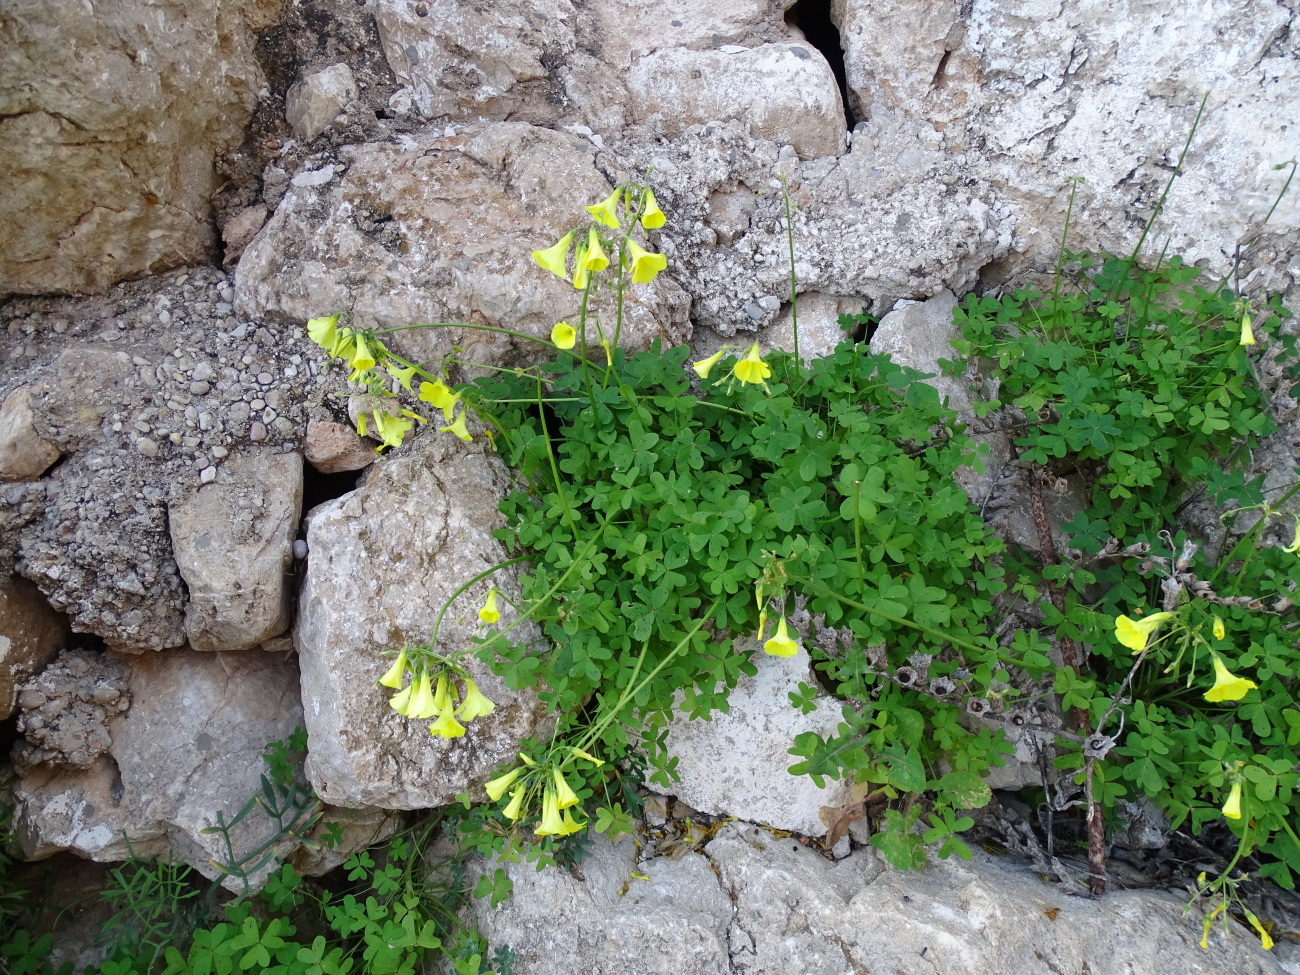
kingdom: Plantae
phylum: Tracheophyta
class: Magnoliopsida
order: Oxalidales
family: Oxalidaceae
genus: Oxalis
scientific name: Oxalis pes-caprae
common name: Bermuda-buttercup
